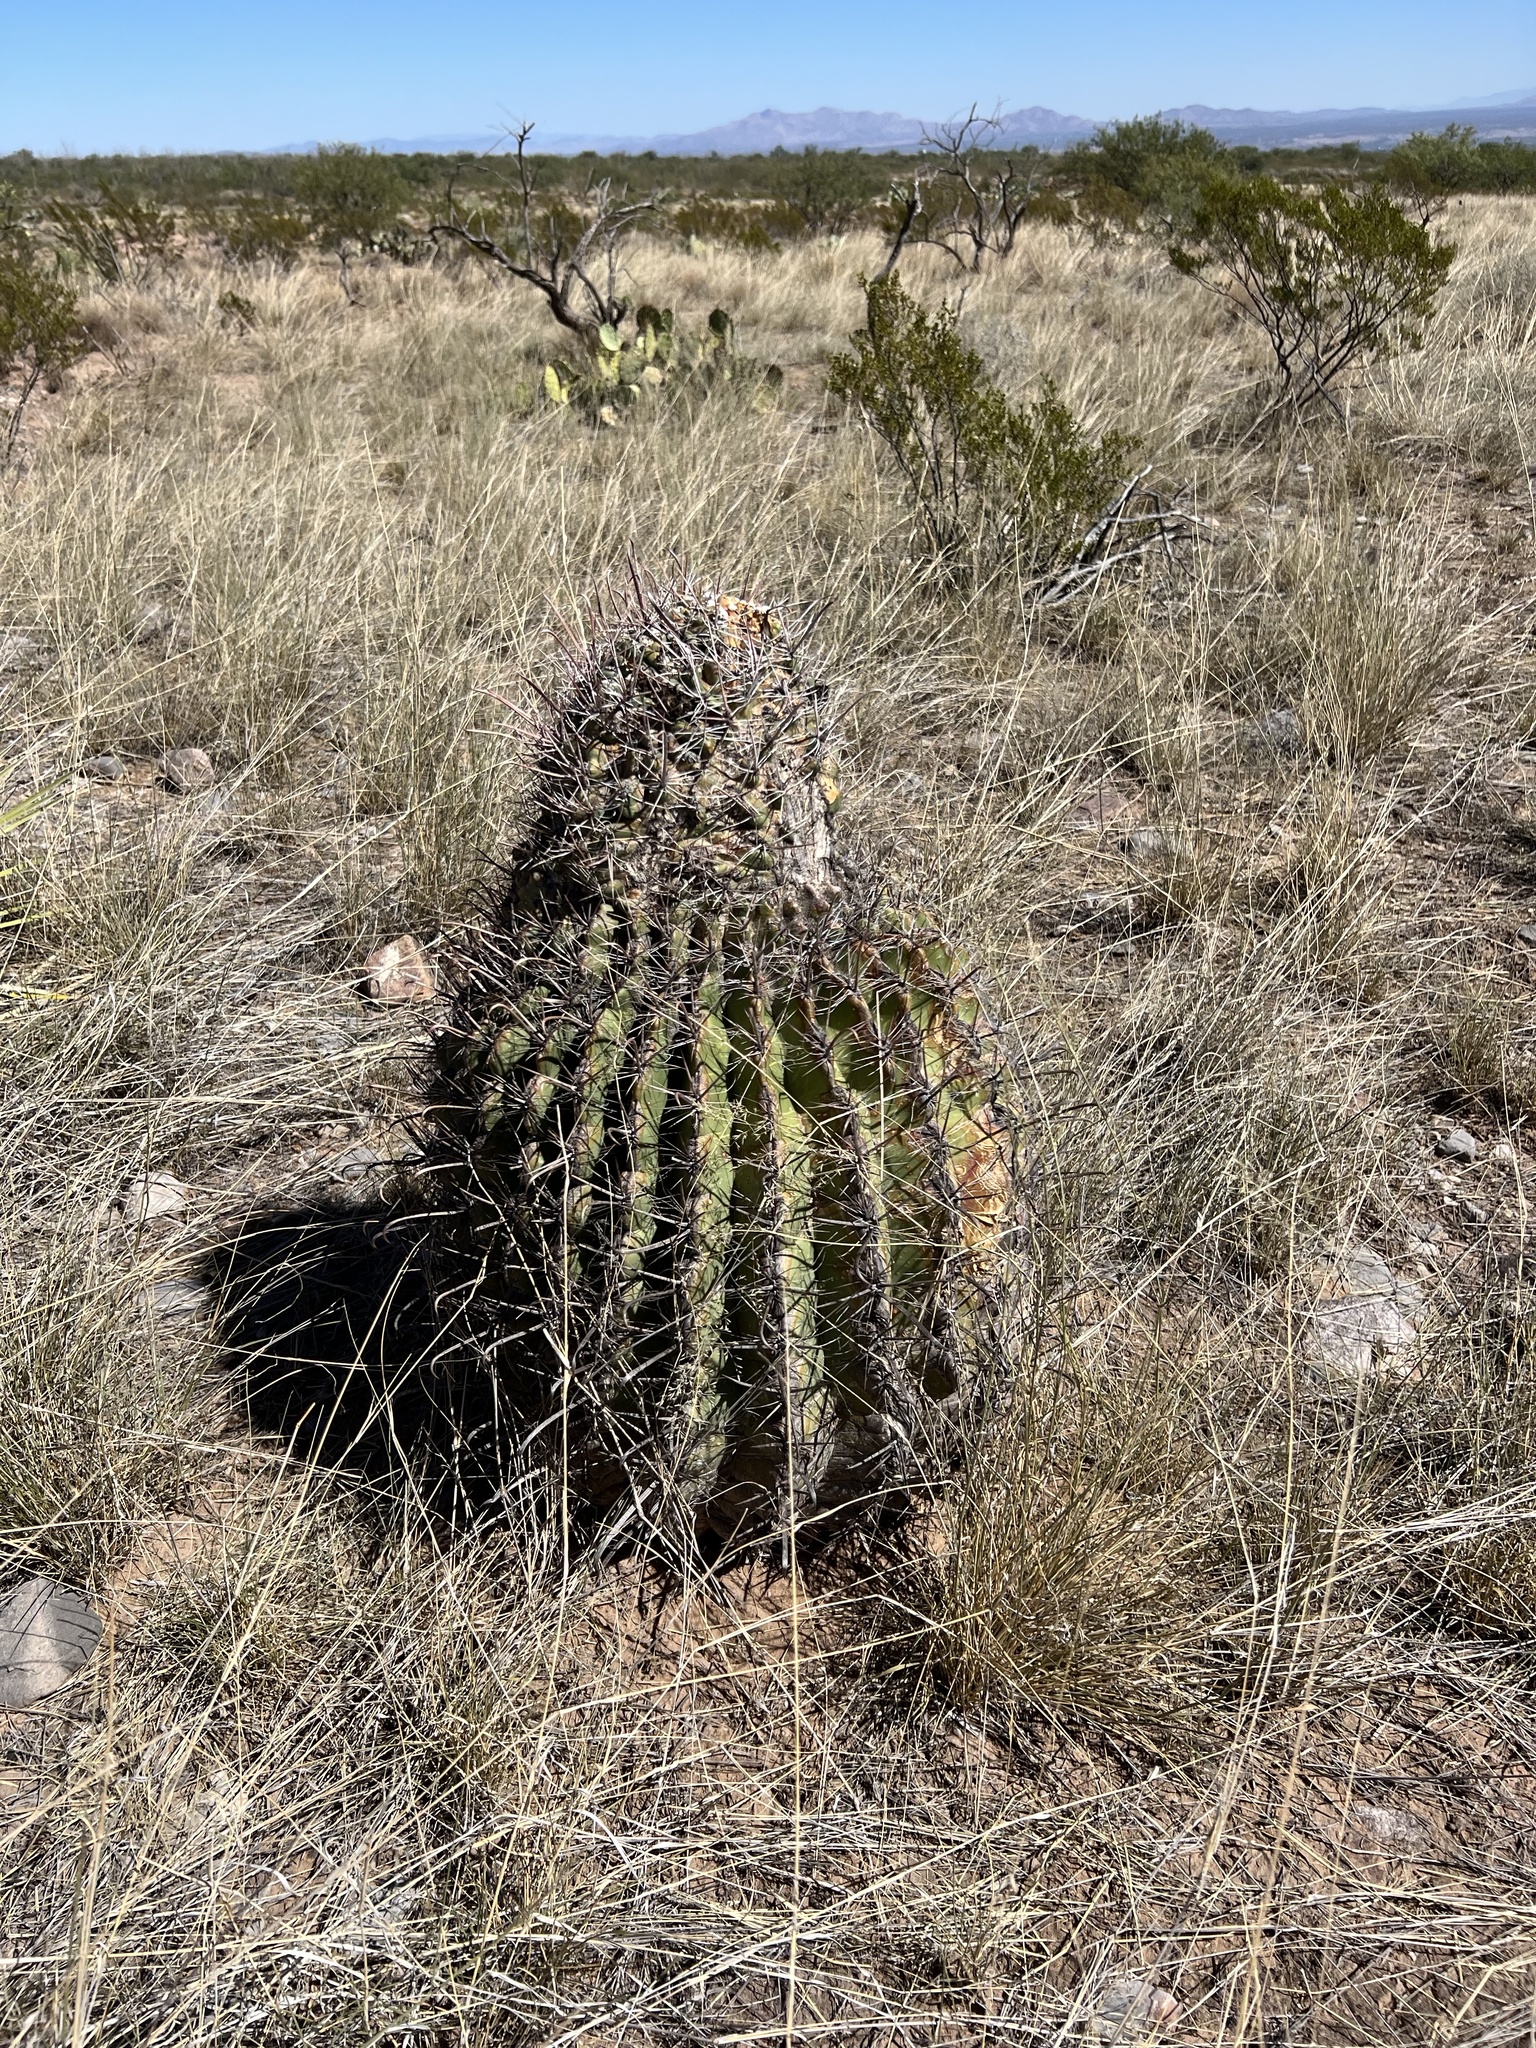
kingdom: Plantae
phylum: Tracheophyta
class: Magnoliopsida
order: Caryophyllales
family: Cactaceae
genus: Ferocactus
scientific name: Ferocactus wislizeni
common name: Candy barrel cactus
